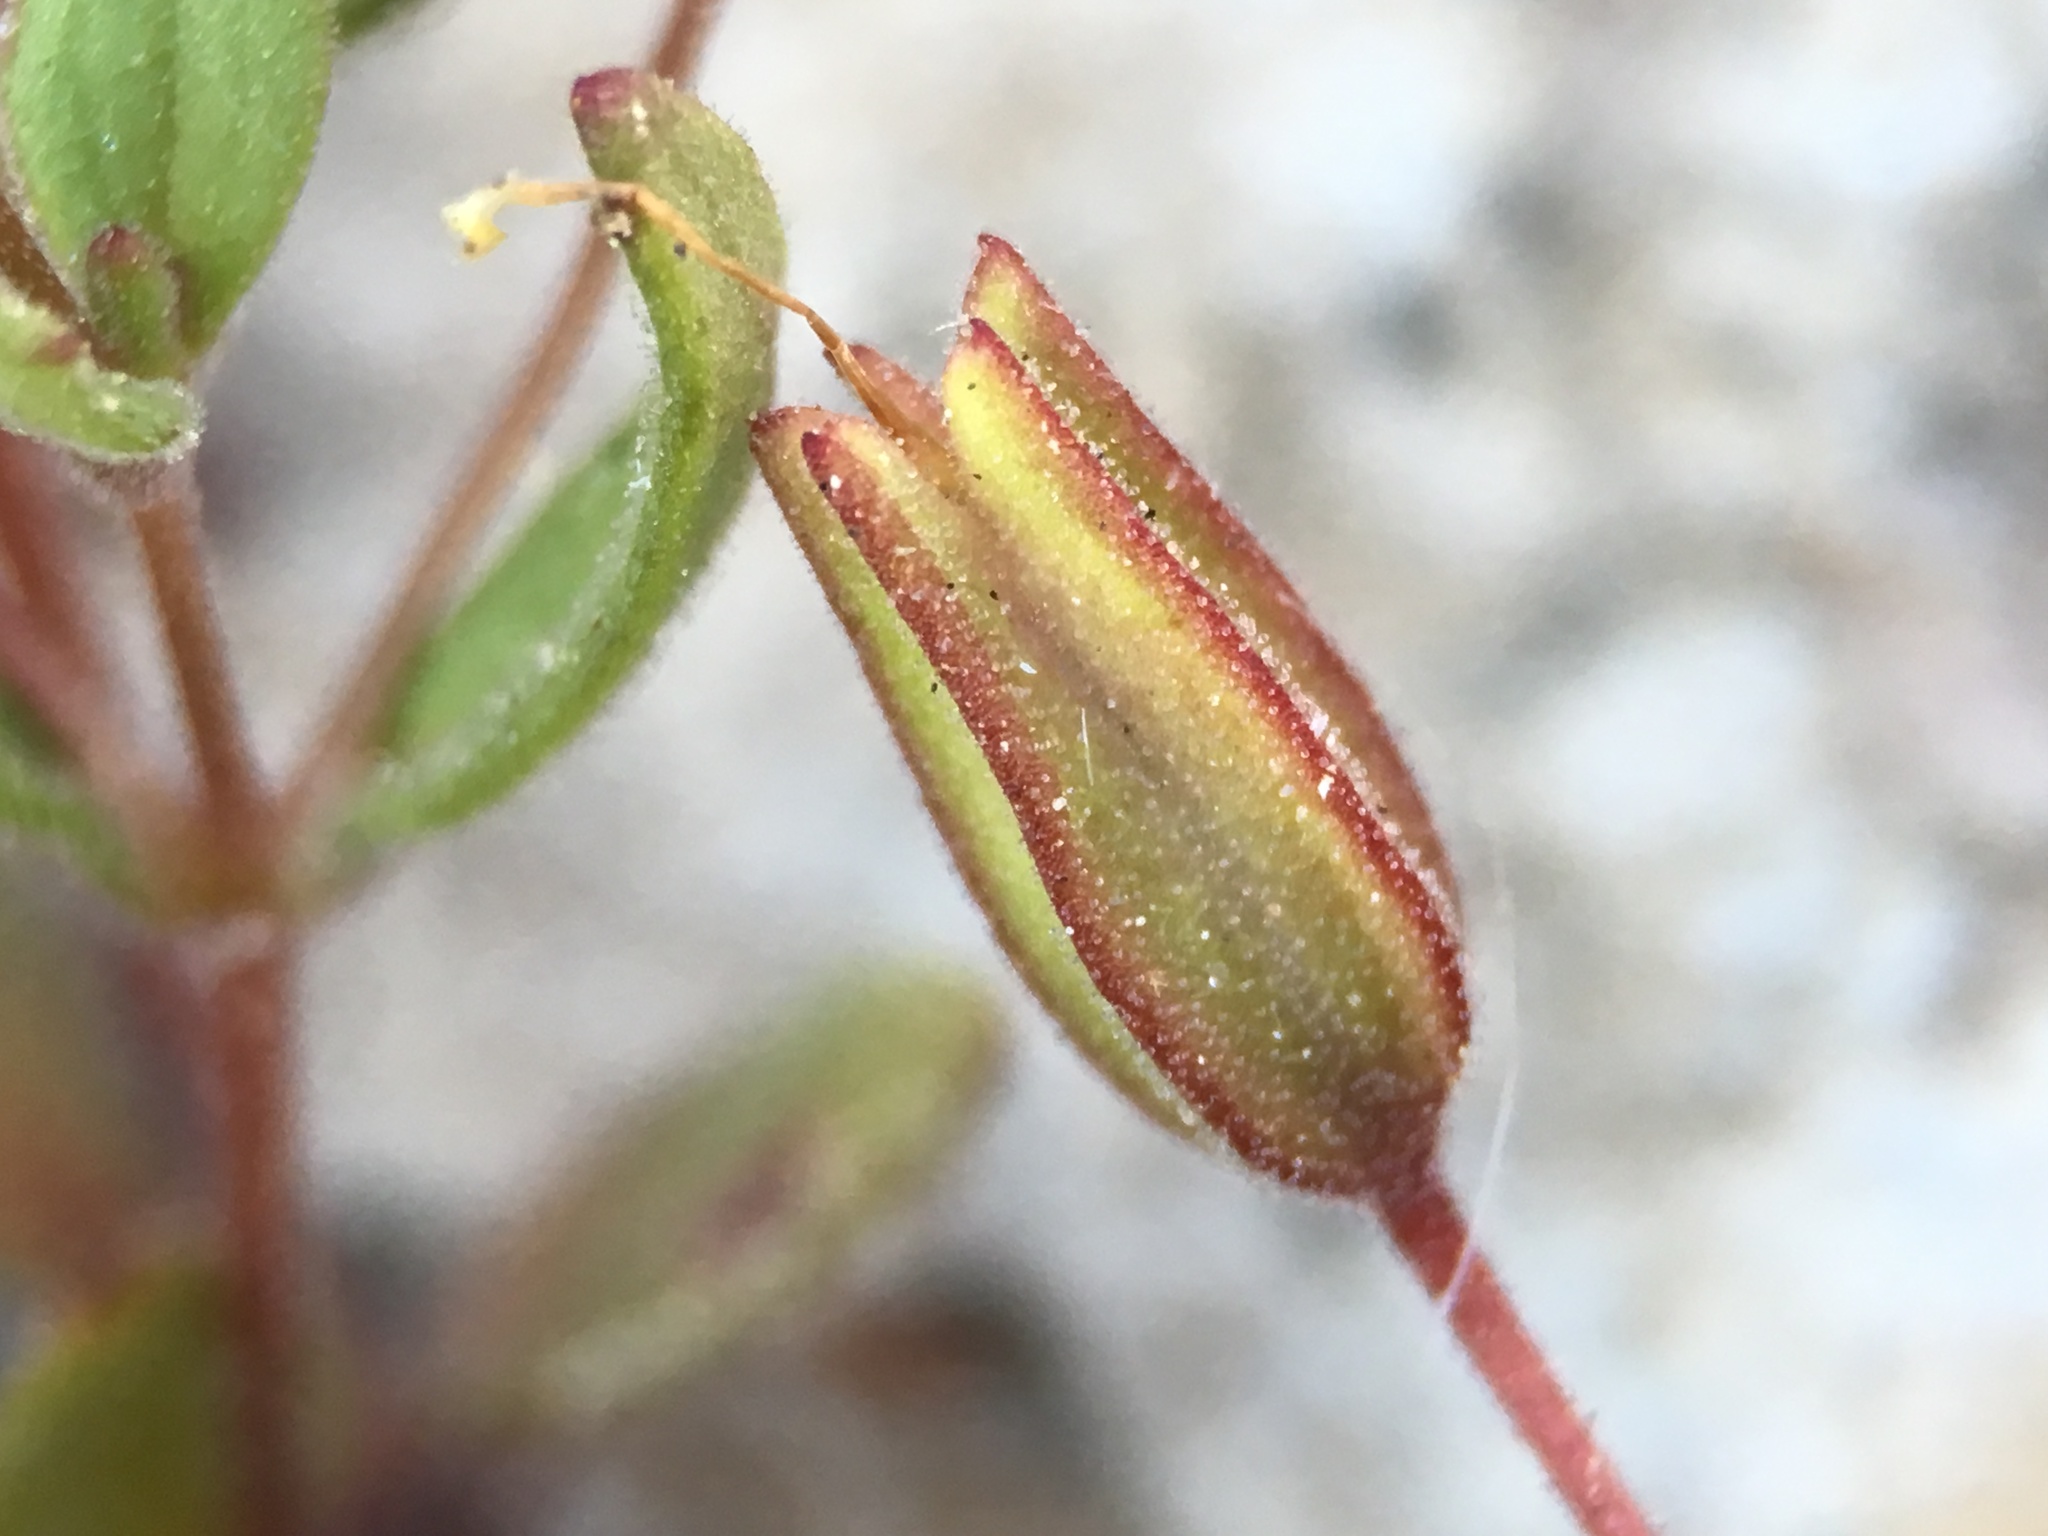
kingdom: Plantae
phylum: Tracheophyta
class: Magnoliopsida
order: Lamiales
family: Phrymaceae
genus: Erythranthe
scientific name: Erythranthe calcicola
